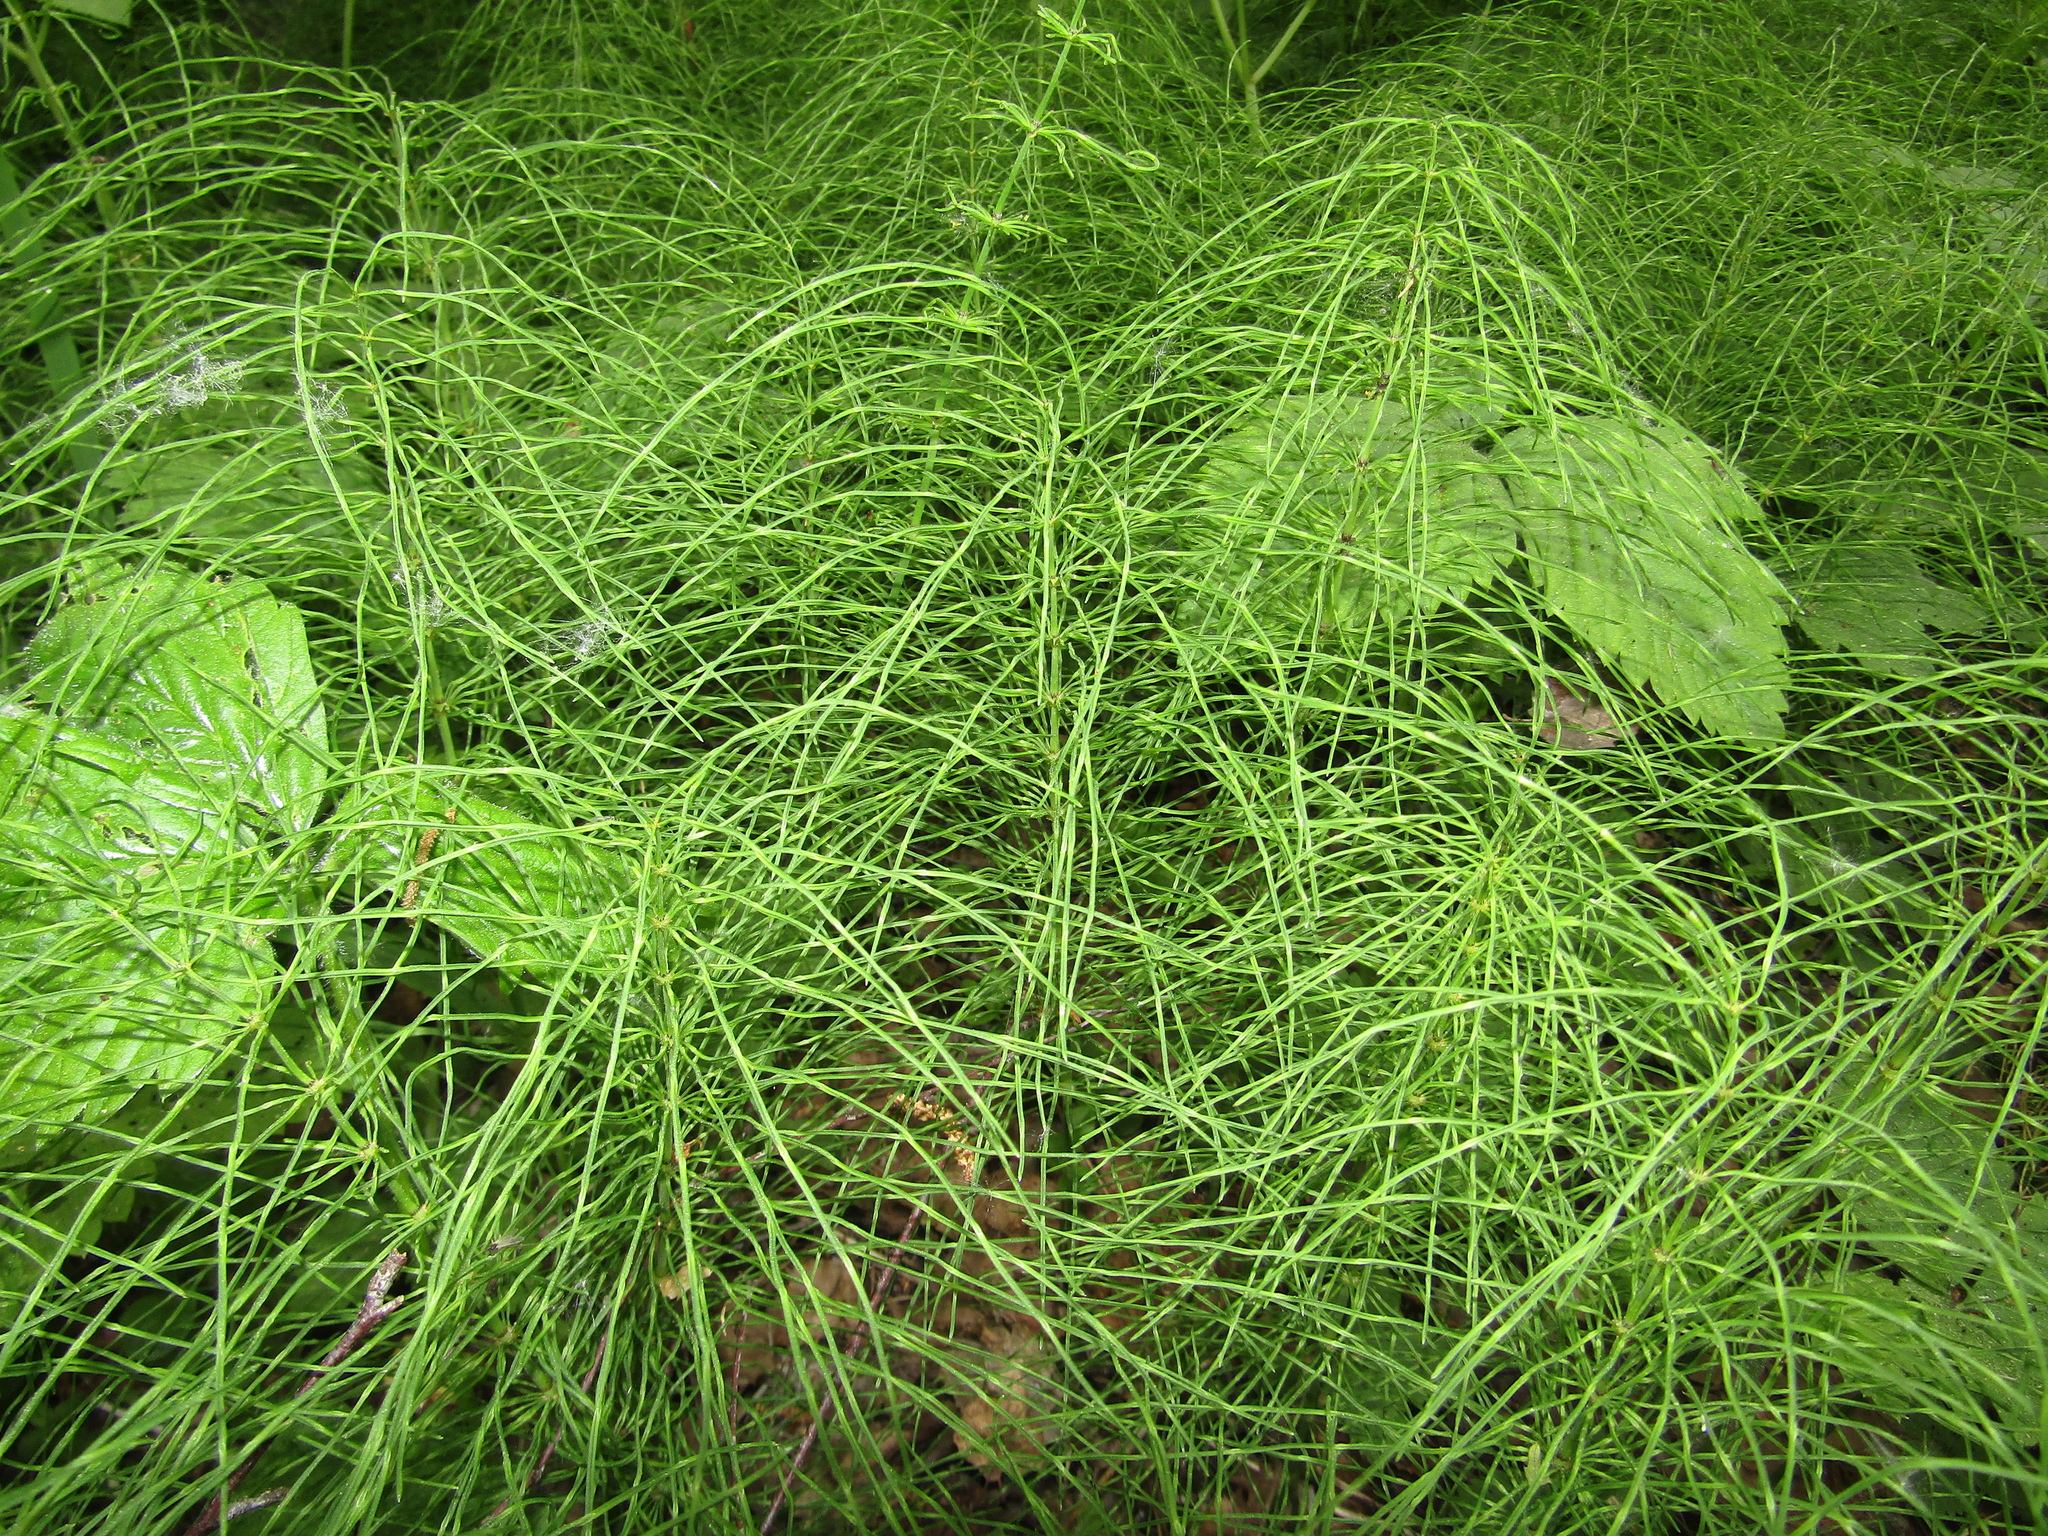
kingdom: Plantae
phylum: Tracheophyta
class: Polypodiopsida
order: Equisetales
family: Equisetaceae
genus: Equisetum
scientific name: Equisetum pratense
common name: Meadow horsetail
